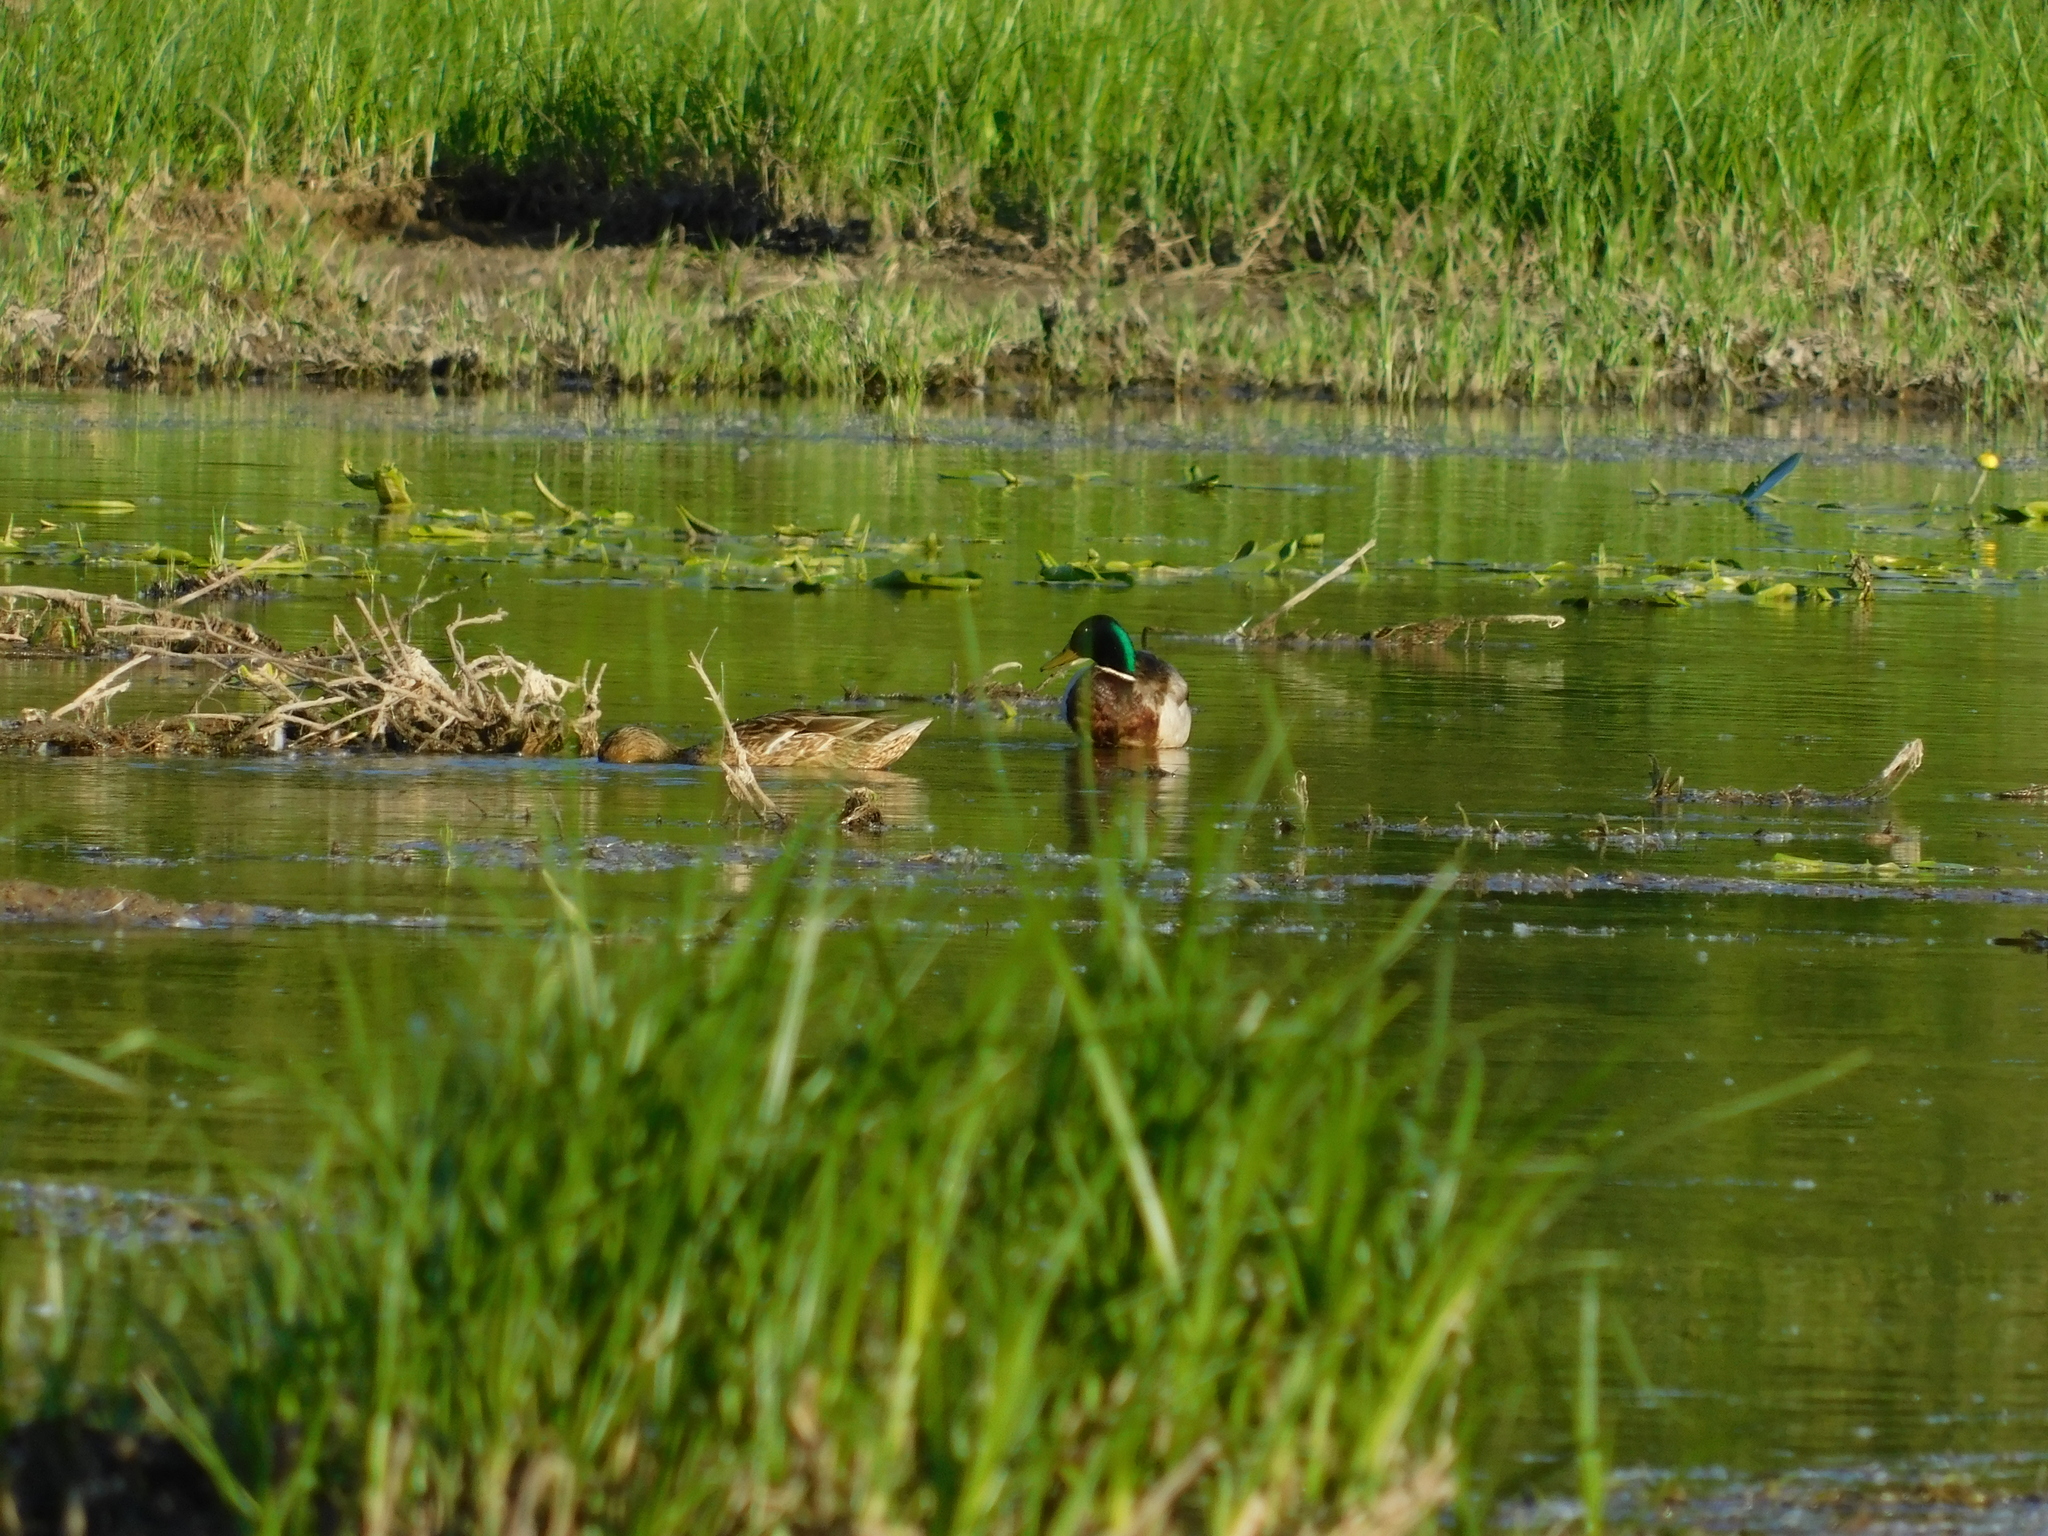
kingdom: Animalia
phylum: Chordata
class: Aves
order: Anseriformes
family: Anatidae
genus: Anas
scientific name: Anas platyrhynchos
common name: Mallard
